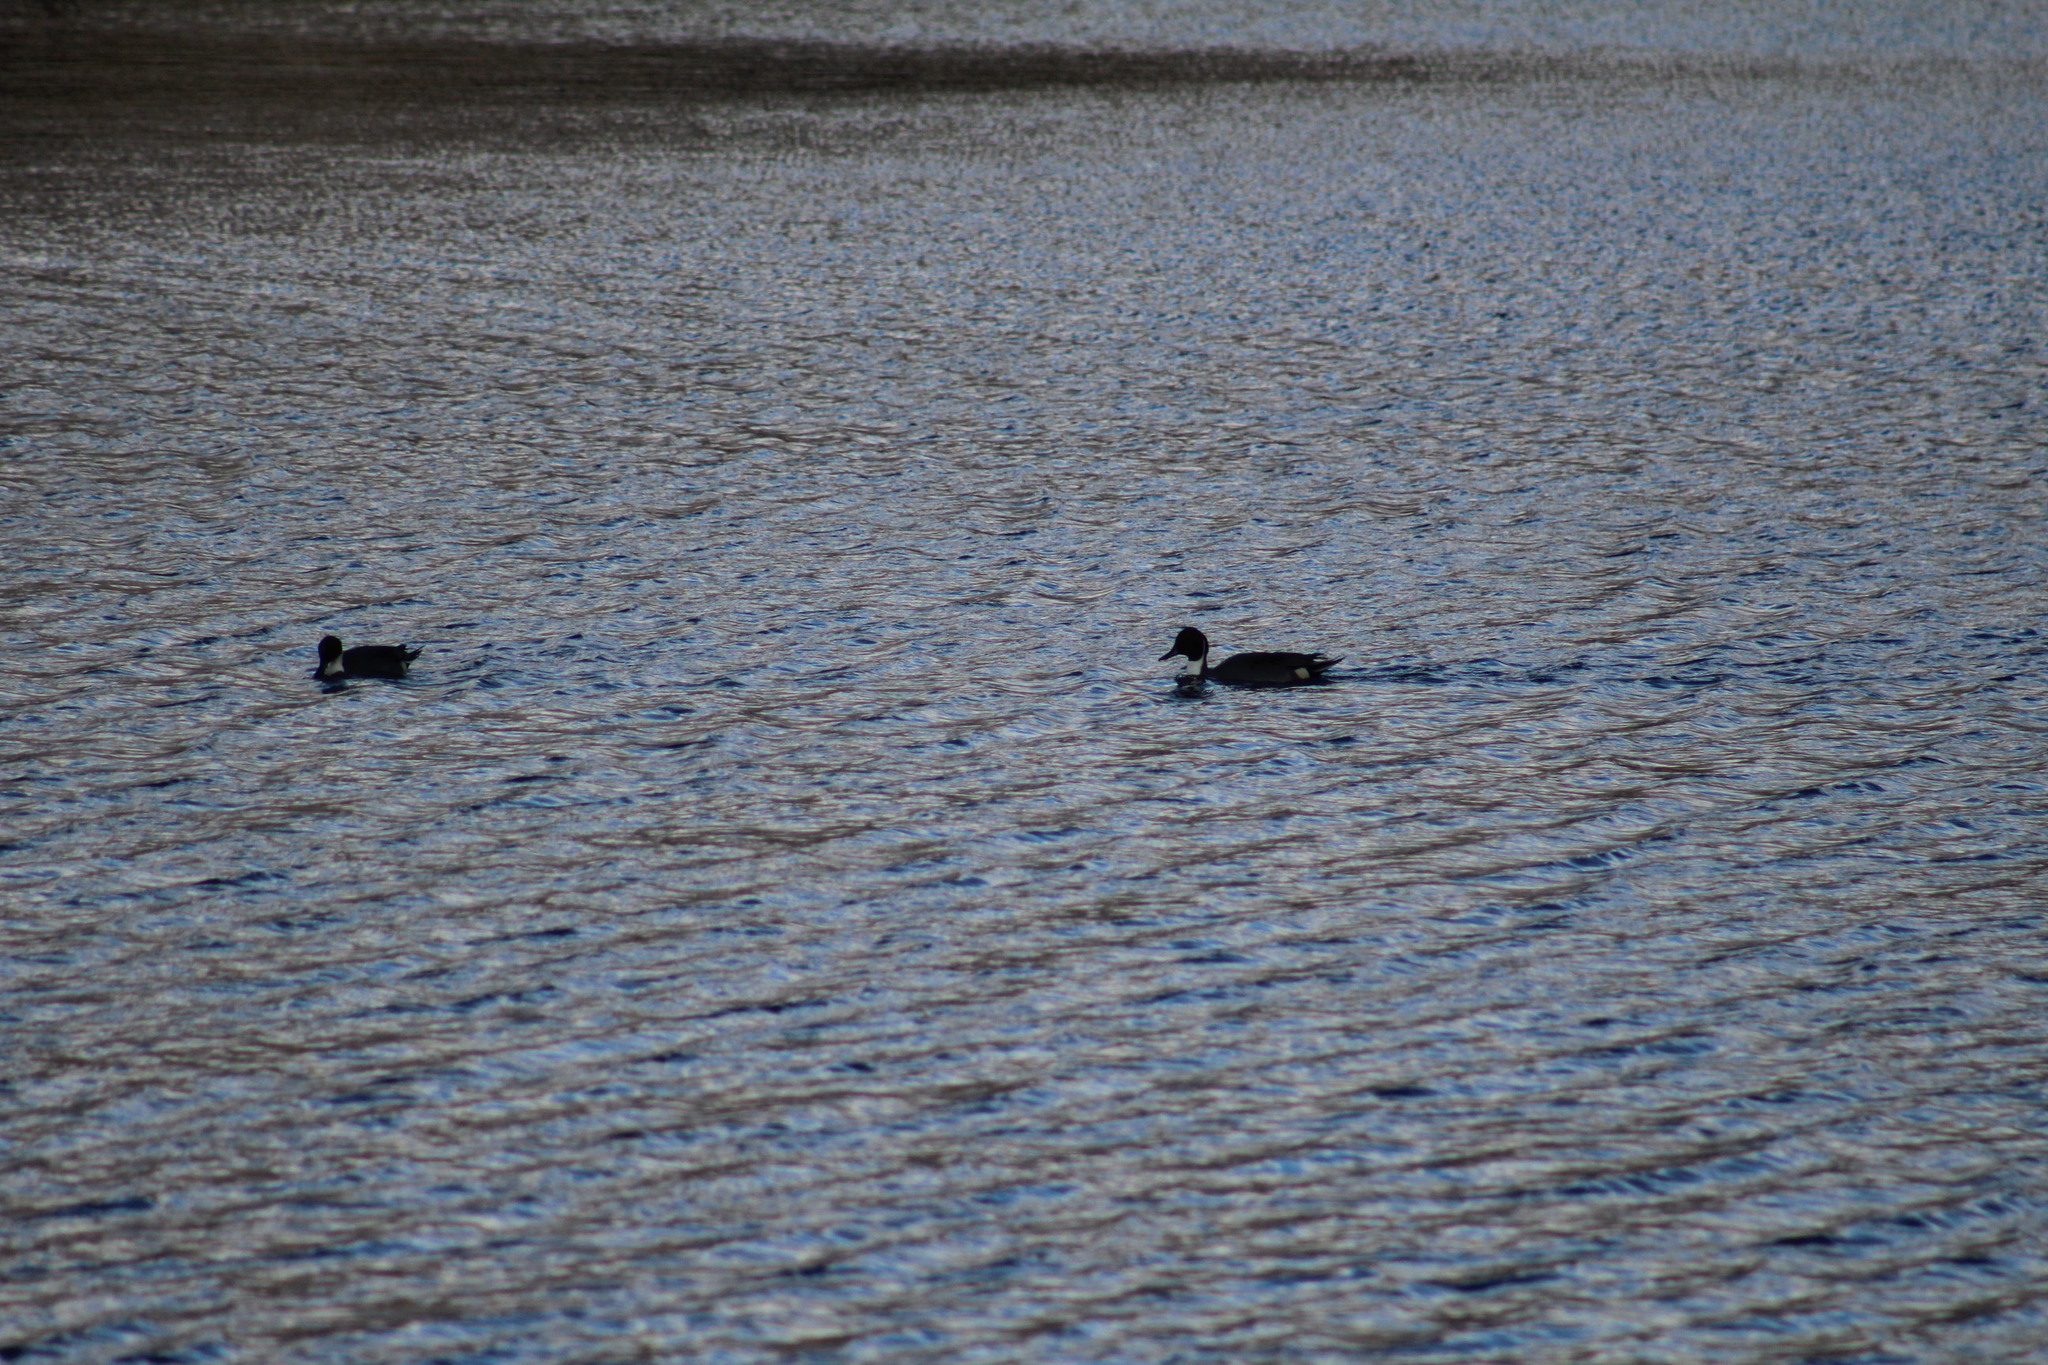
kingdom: Animalia
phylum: Chordata
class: Aves
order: Anseriformes
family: Anatidae
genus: Anas
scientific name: Anas acuta
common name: Northern pintail
